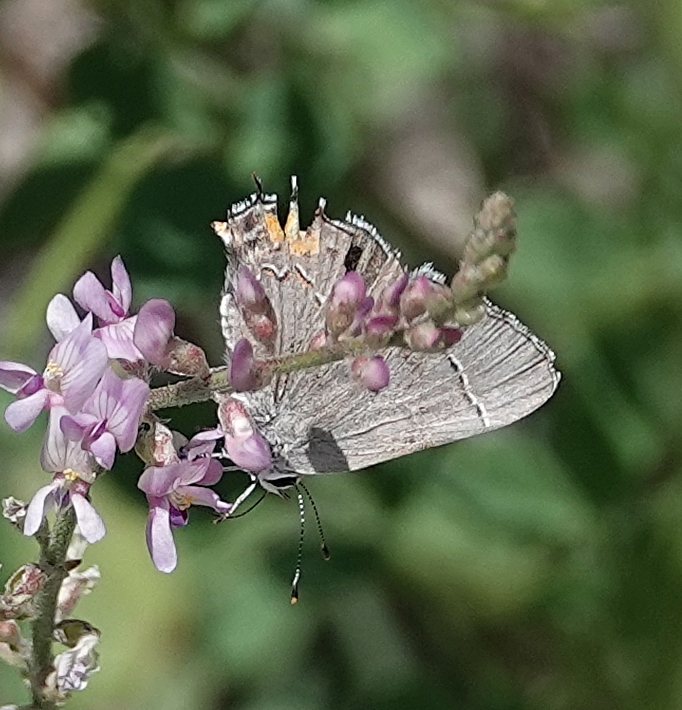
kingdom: Animalia
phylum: Arthropoda
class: Insecta
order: Lepidoptera
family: Lycaenidae
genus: Strymon
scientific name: Strymon melinus
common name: Gray hairstreak
